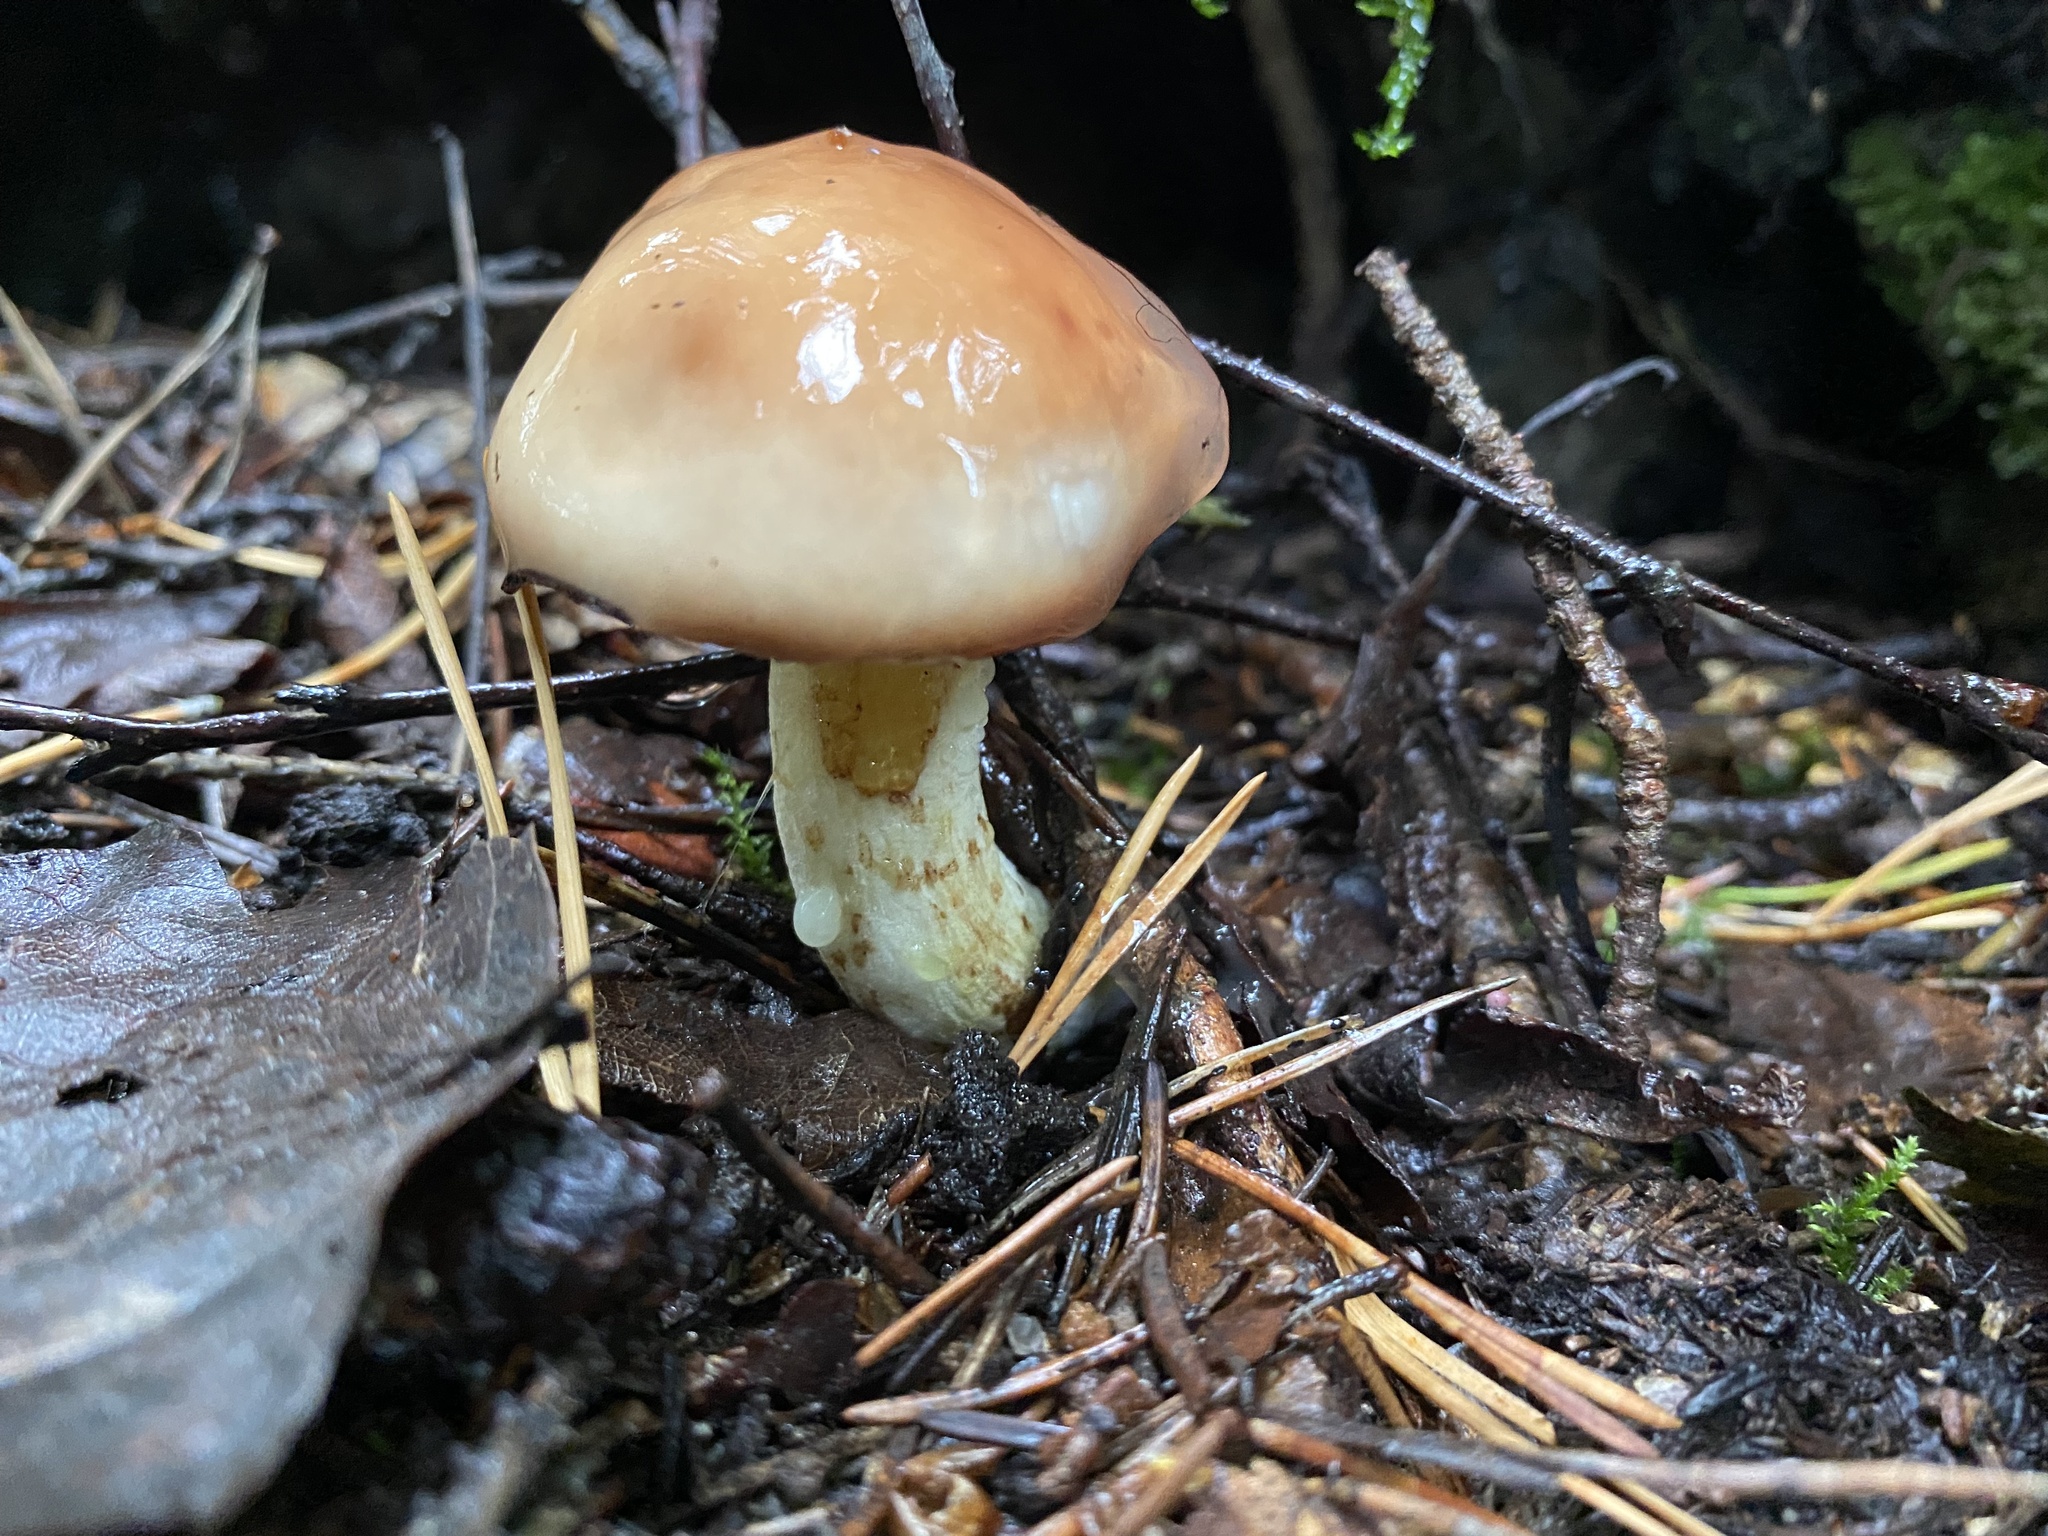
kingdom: Fungi
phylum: Basidiomycota
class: Agaricomycetes
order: Boletales
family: Suillaceae
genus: Suillus
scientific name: Suillus granulatus
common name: Weeping bolete
